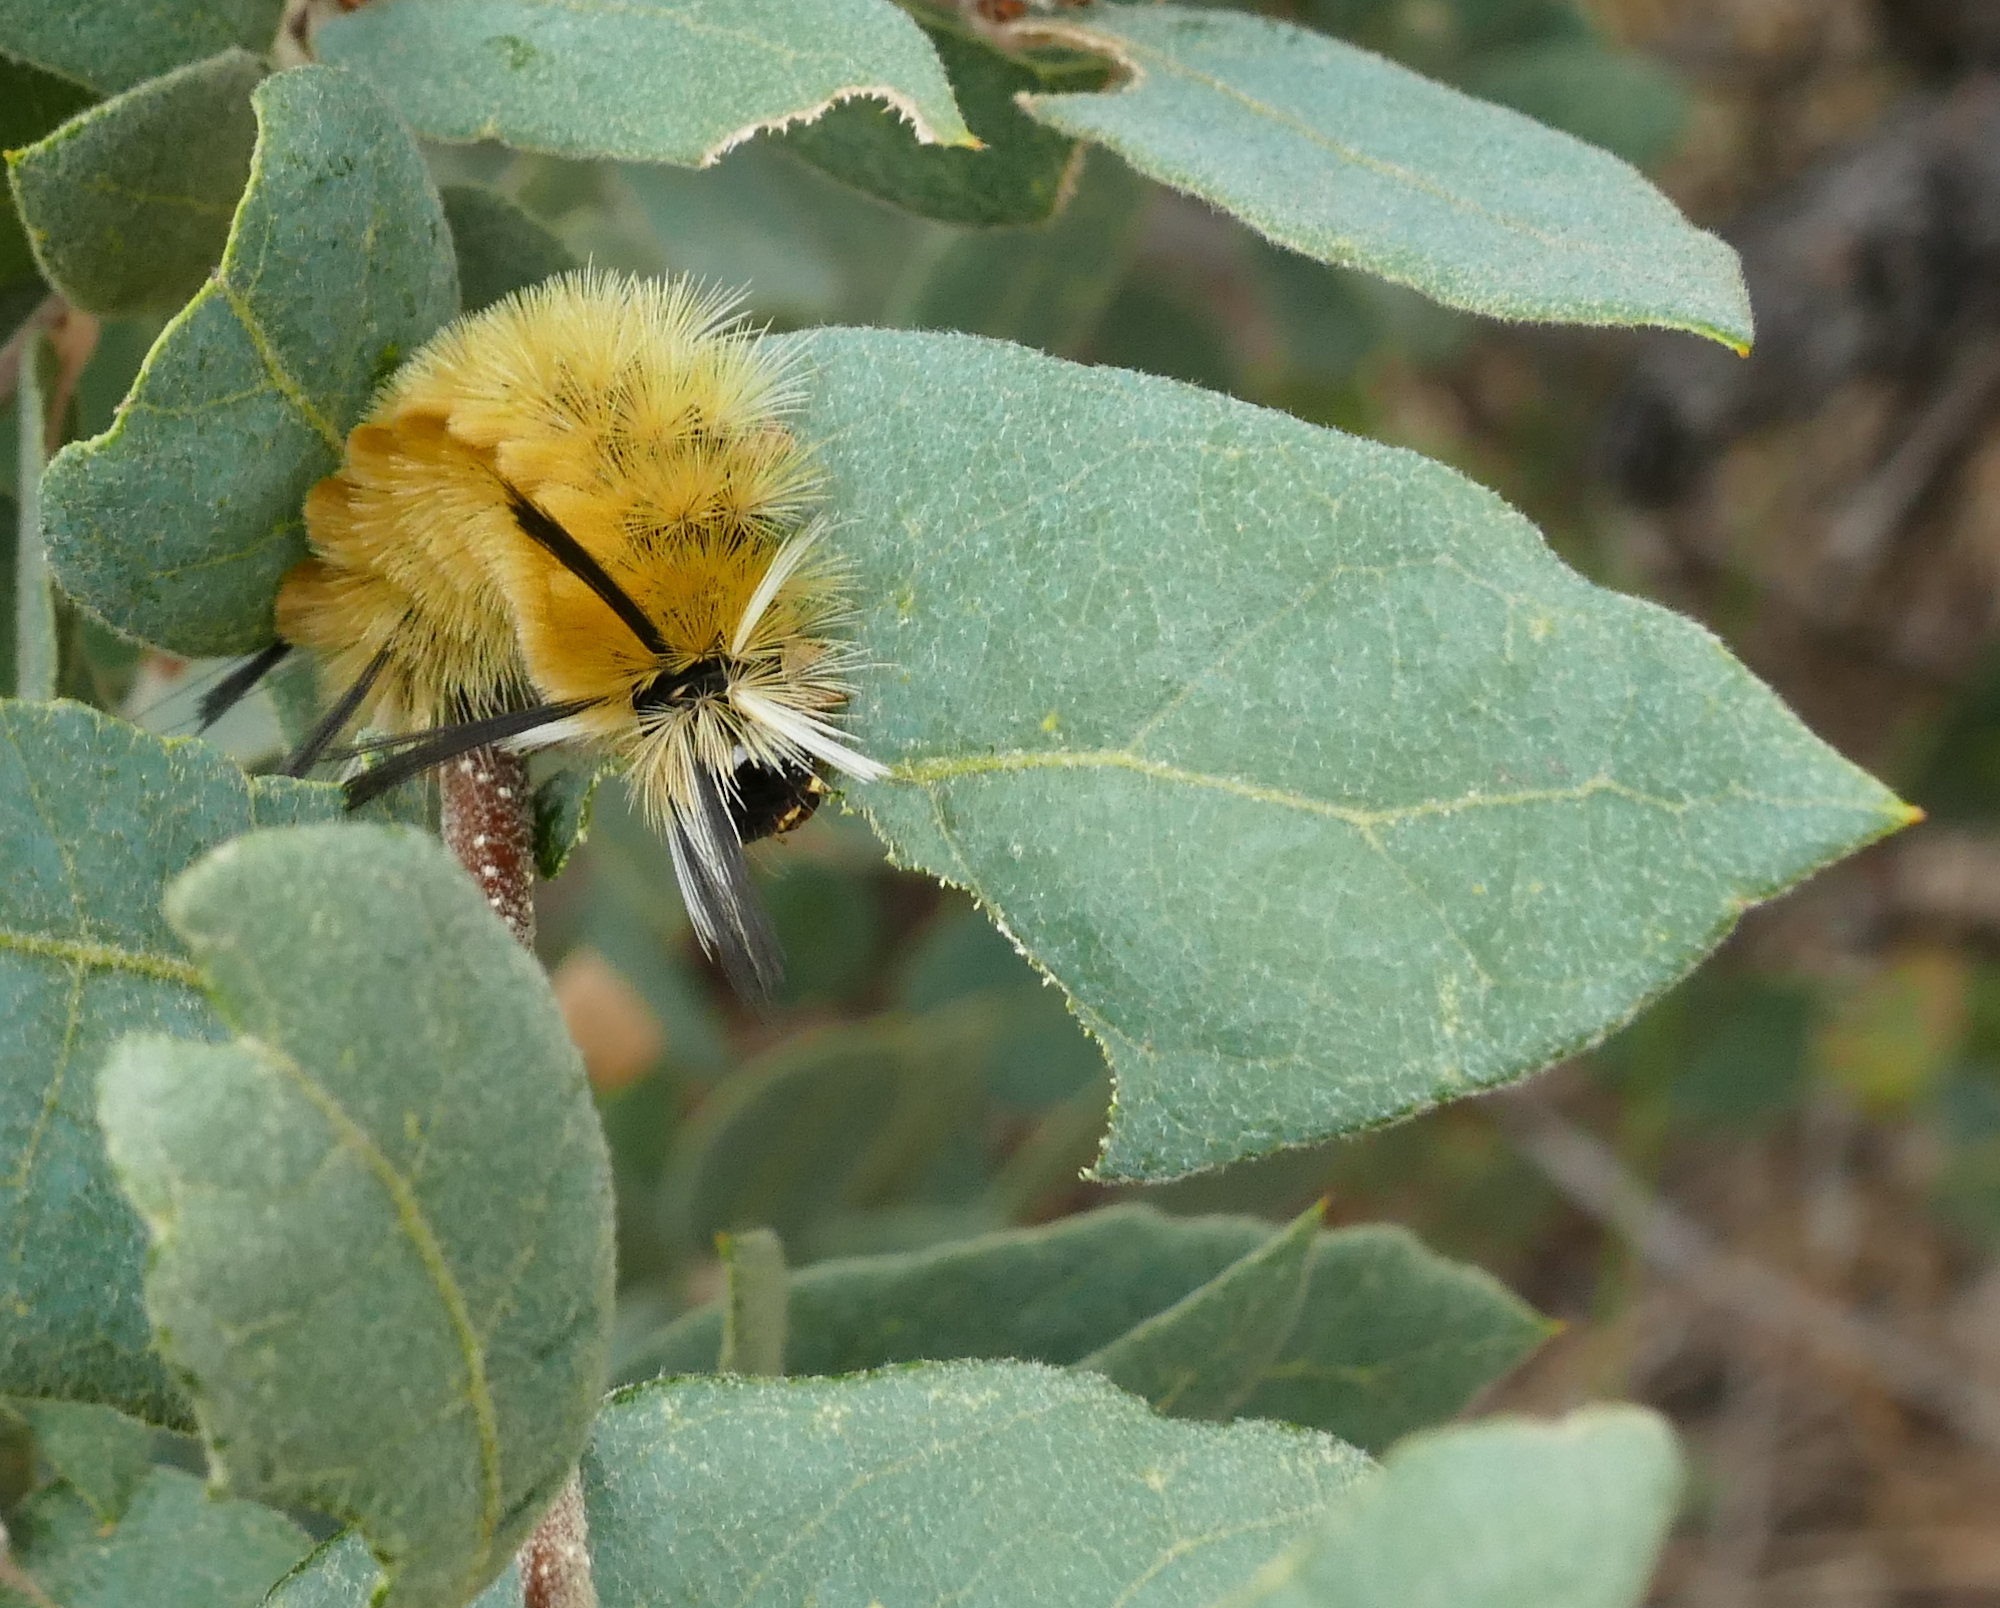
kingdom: Animalia
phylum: Arthropoda
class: Insecta
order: Lepidoptera
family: Erebidae
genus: Halysidota
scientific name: Halysidota tessellaris
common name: Banded tussock moth
